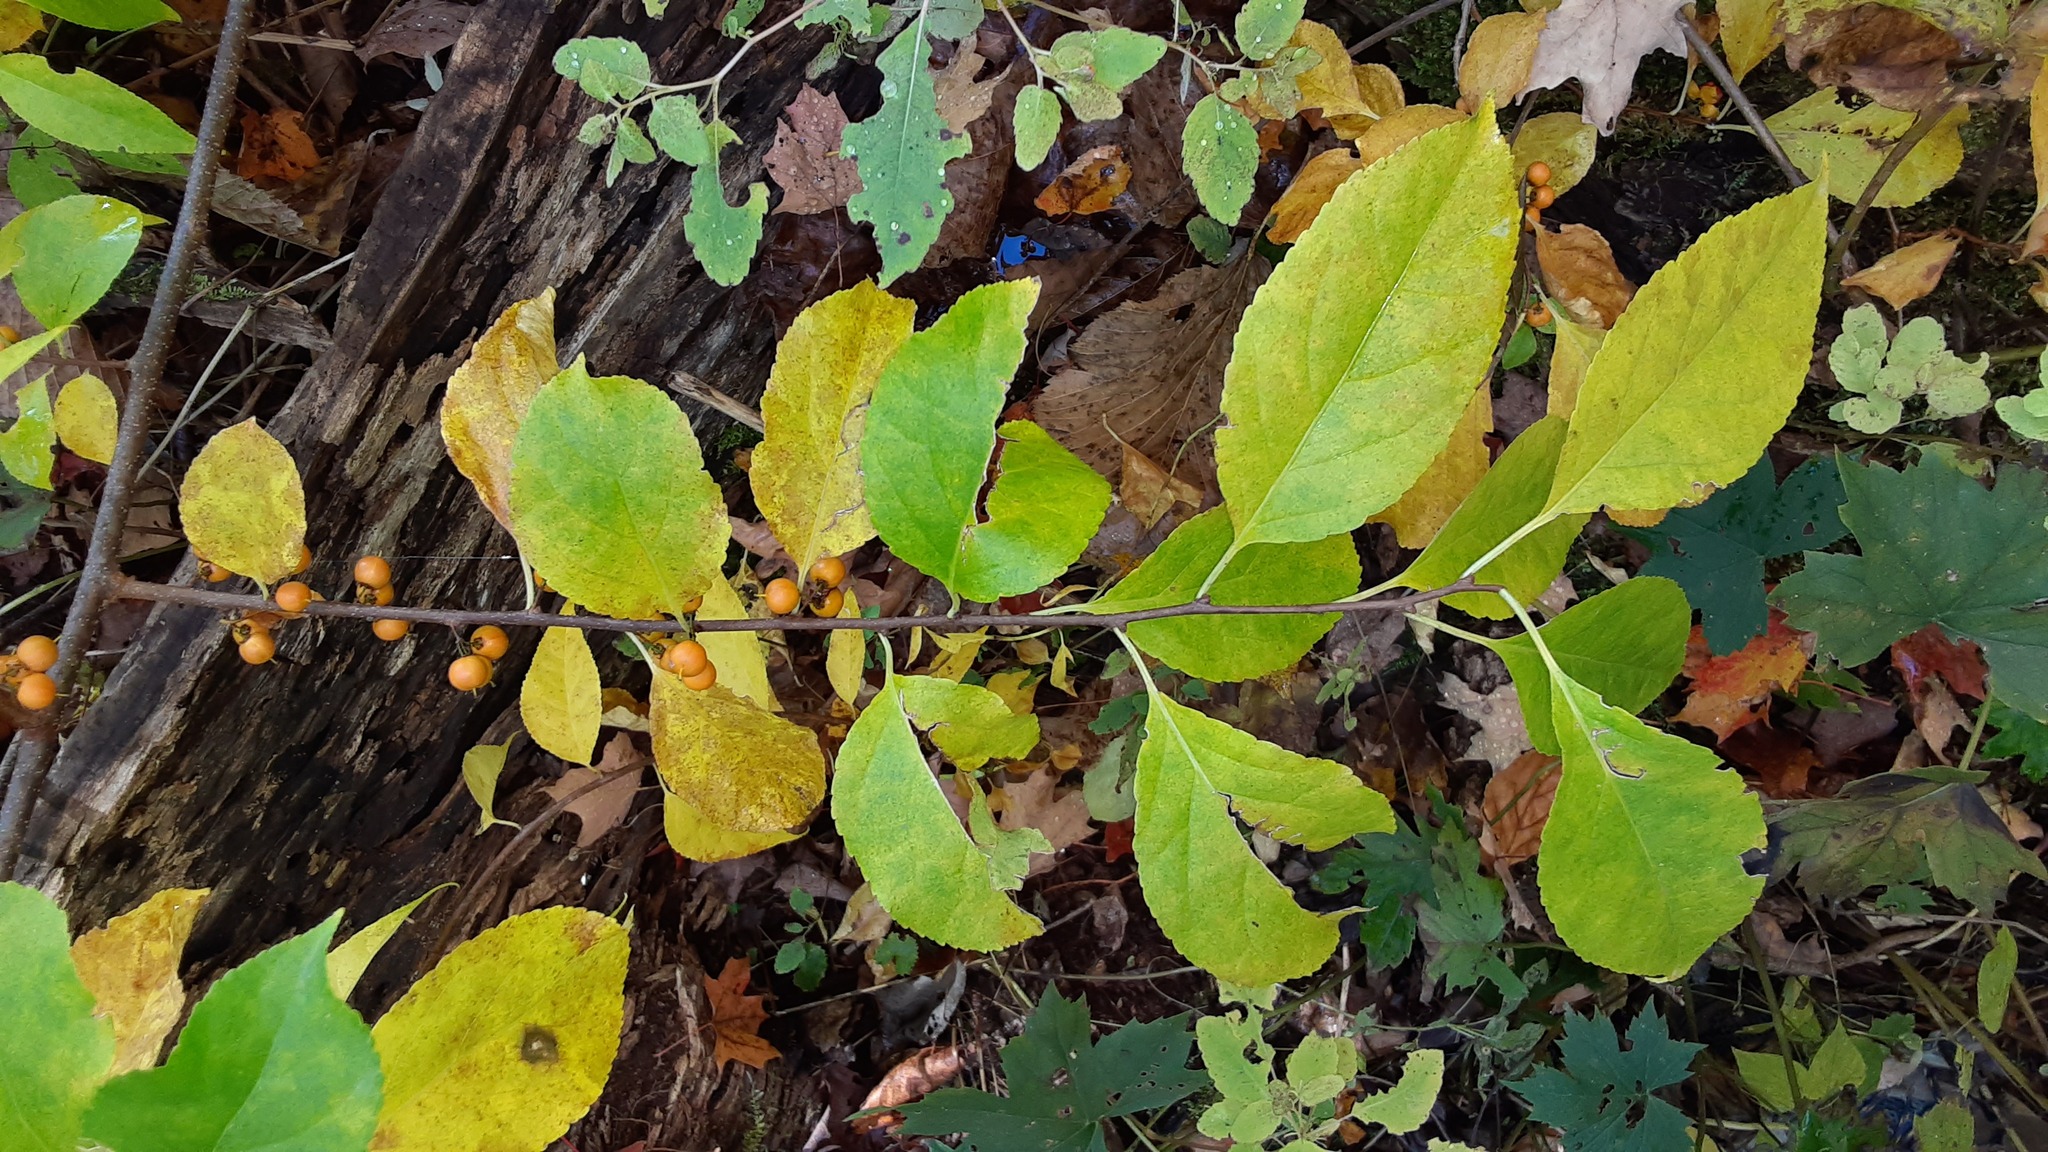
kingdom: Plantae
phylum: Tracheophyta
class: Magnoliopsida
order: Celastrales
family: Celastraceae
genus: Celastrus
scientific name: Celastrus orbiculatus
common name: Oriental bittersweet
